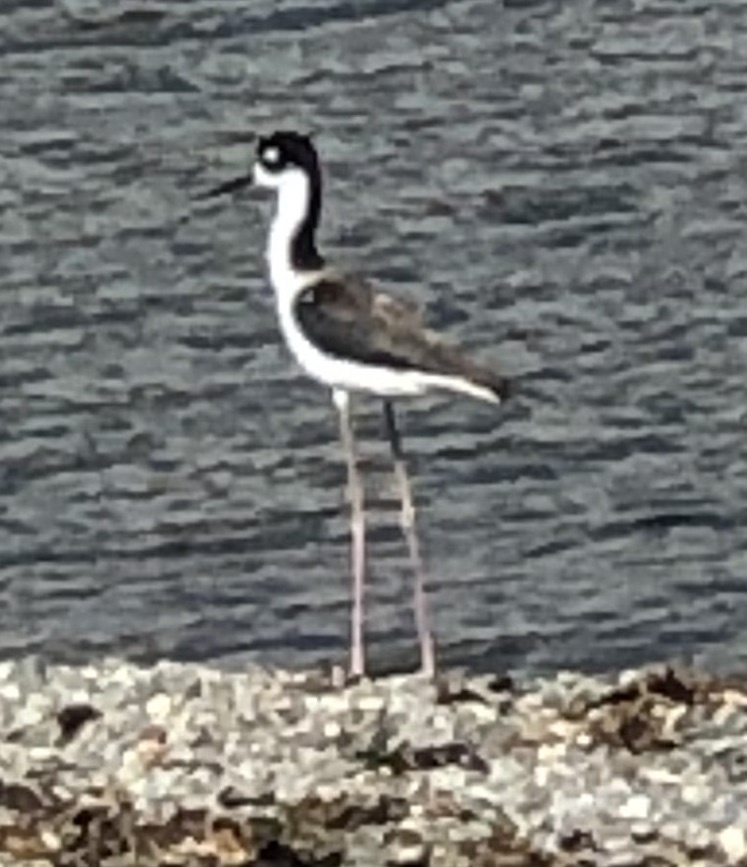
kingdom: Animalia
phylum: Chordata
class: Aves
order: Charadriiformes
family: Recurvirostridae
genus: Himantopus
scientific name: Himantopus mexicanus
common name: Black-necked stilt
